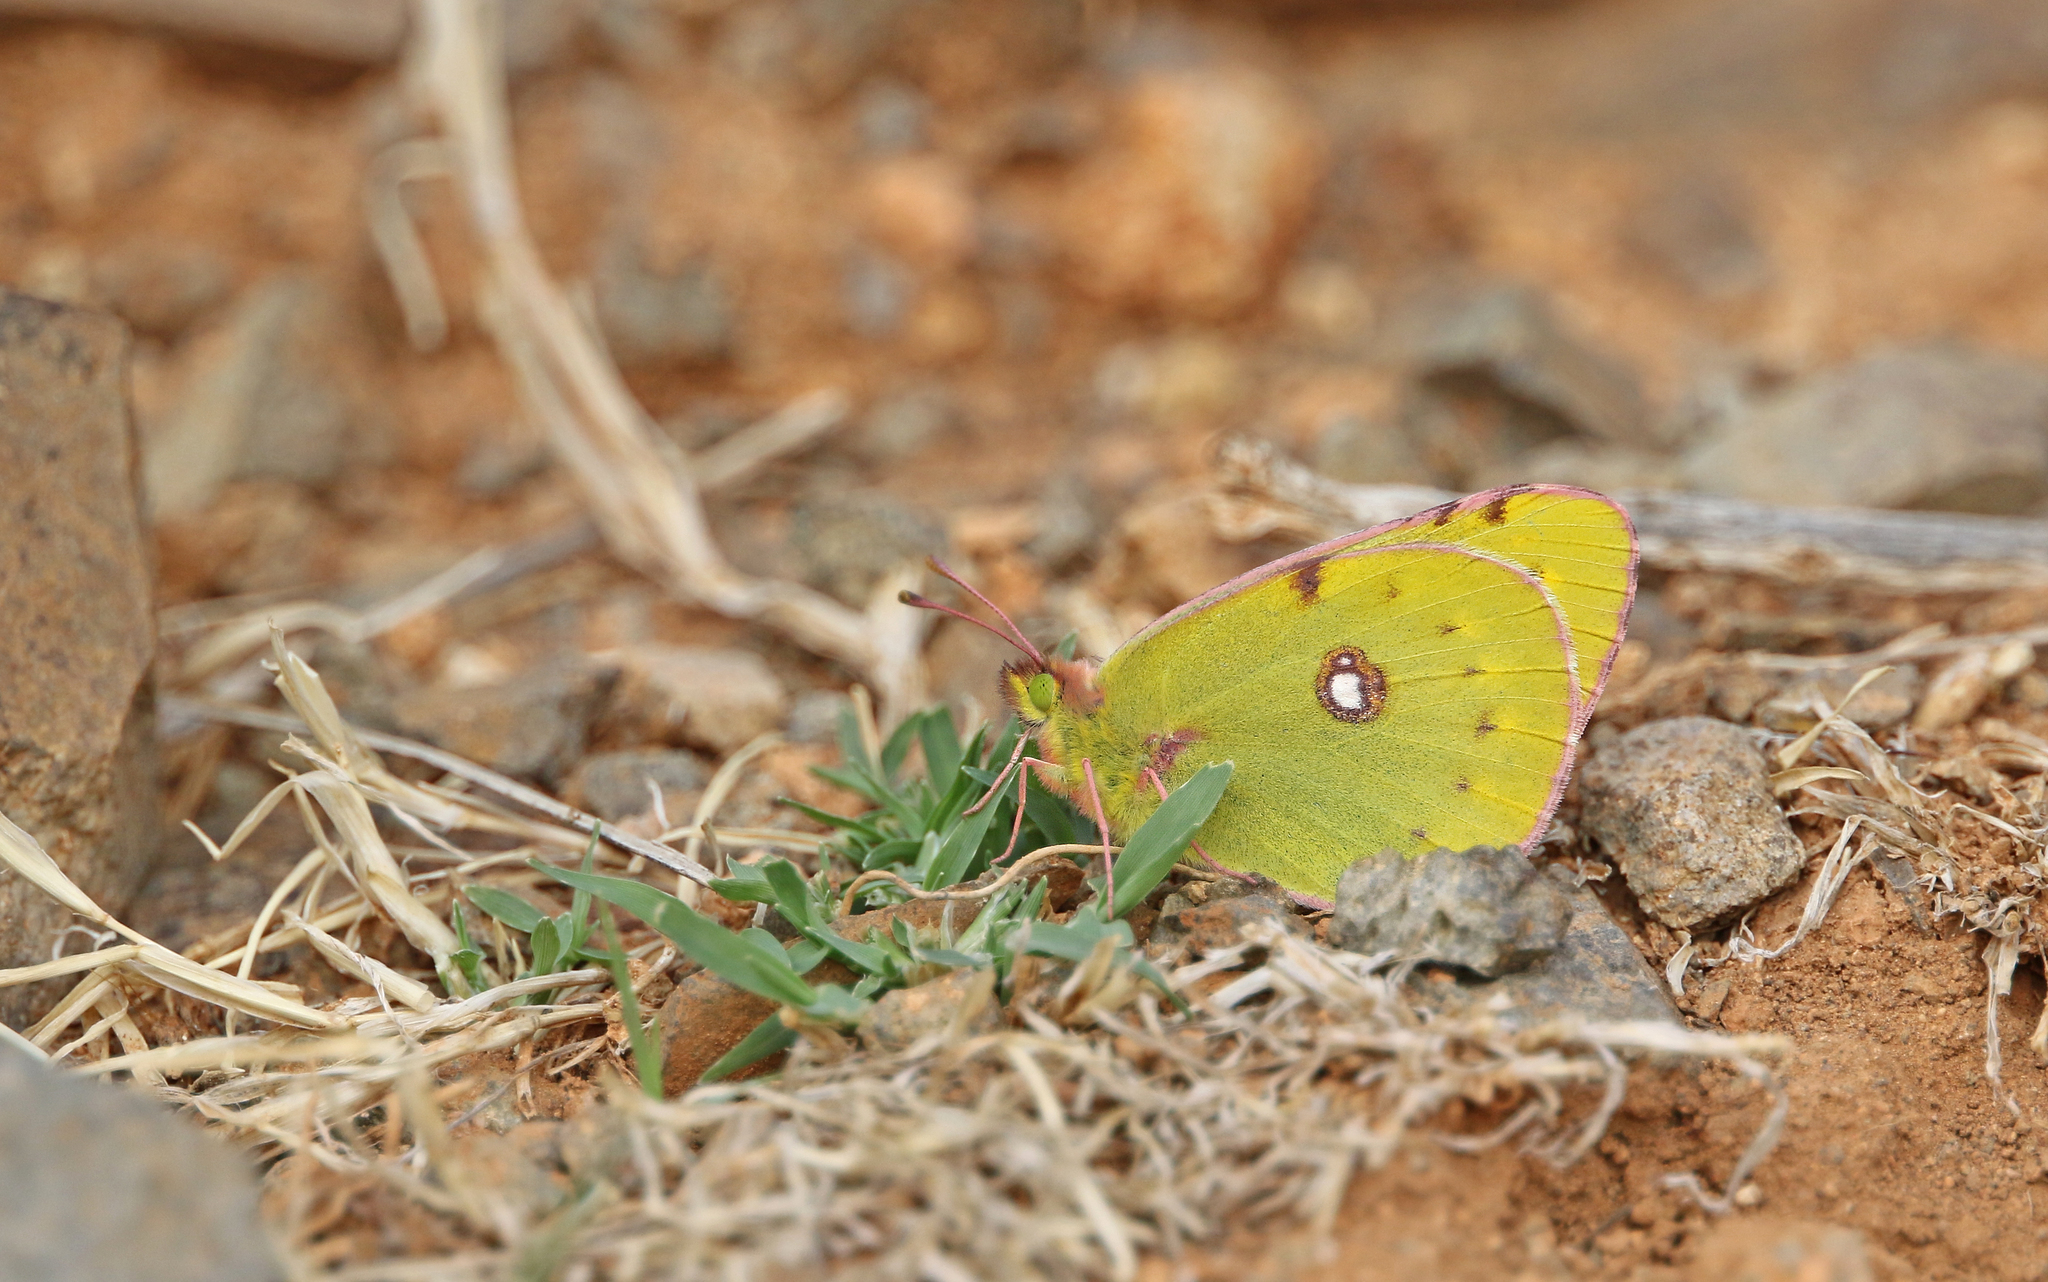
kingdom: Animalia
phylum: Arthropoda
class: Insecta
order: Lepidoptera
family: Pieridae
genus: Colias
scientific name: Colias croceus
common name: Clouded yellow
